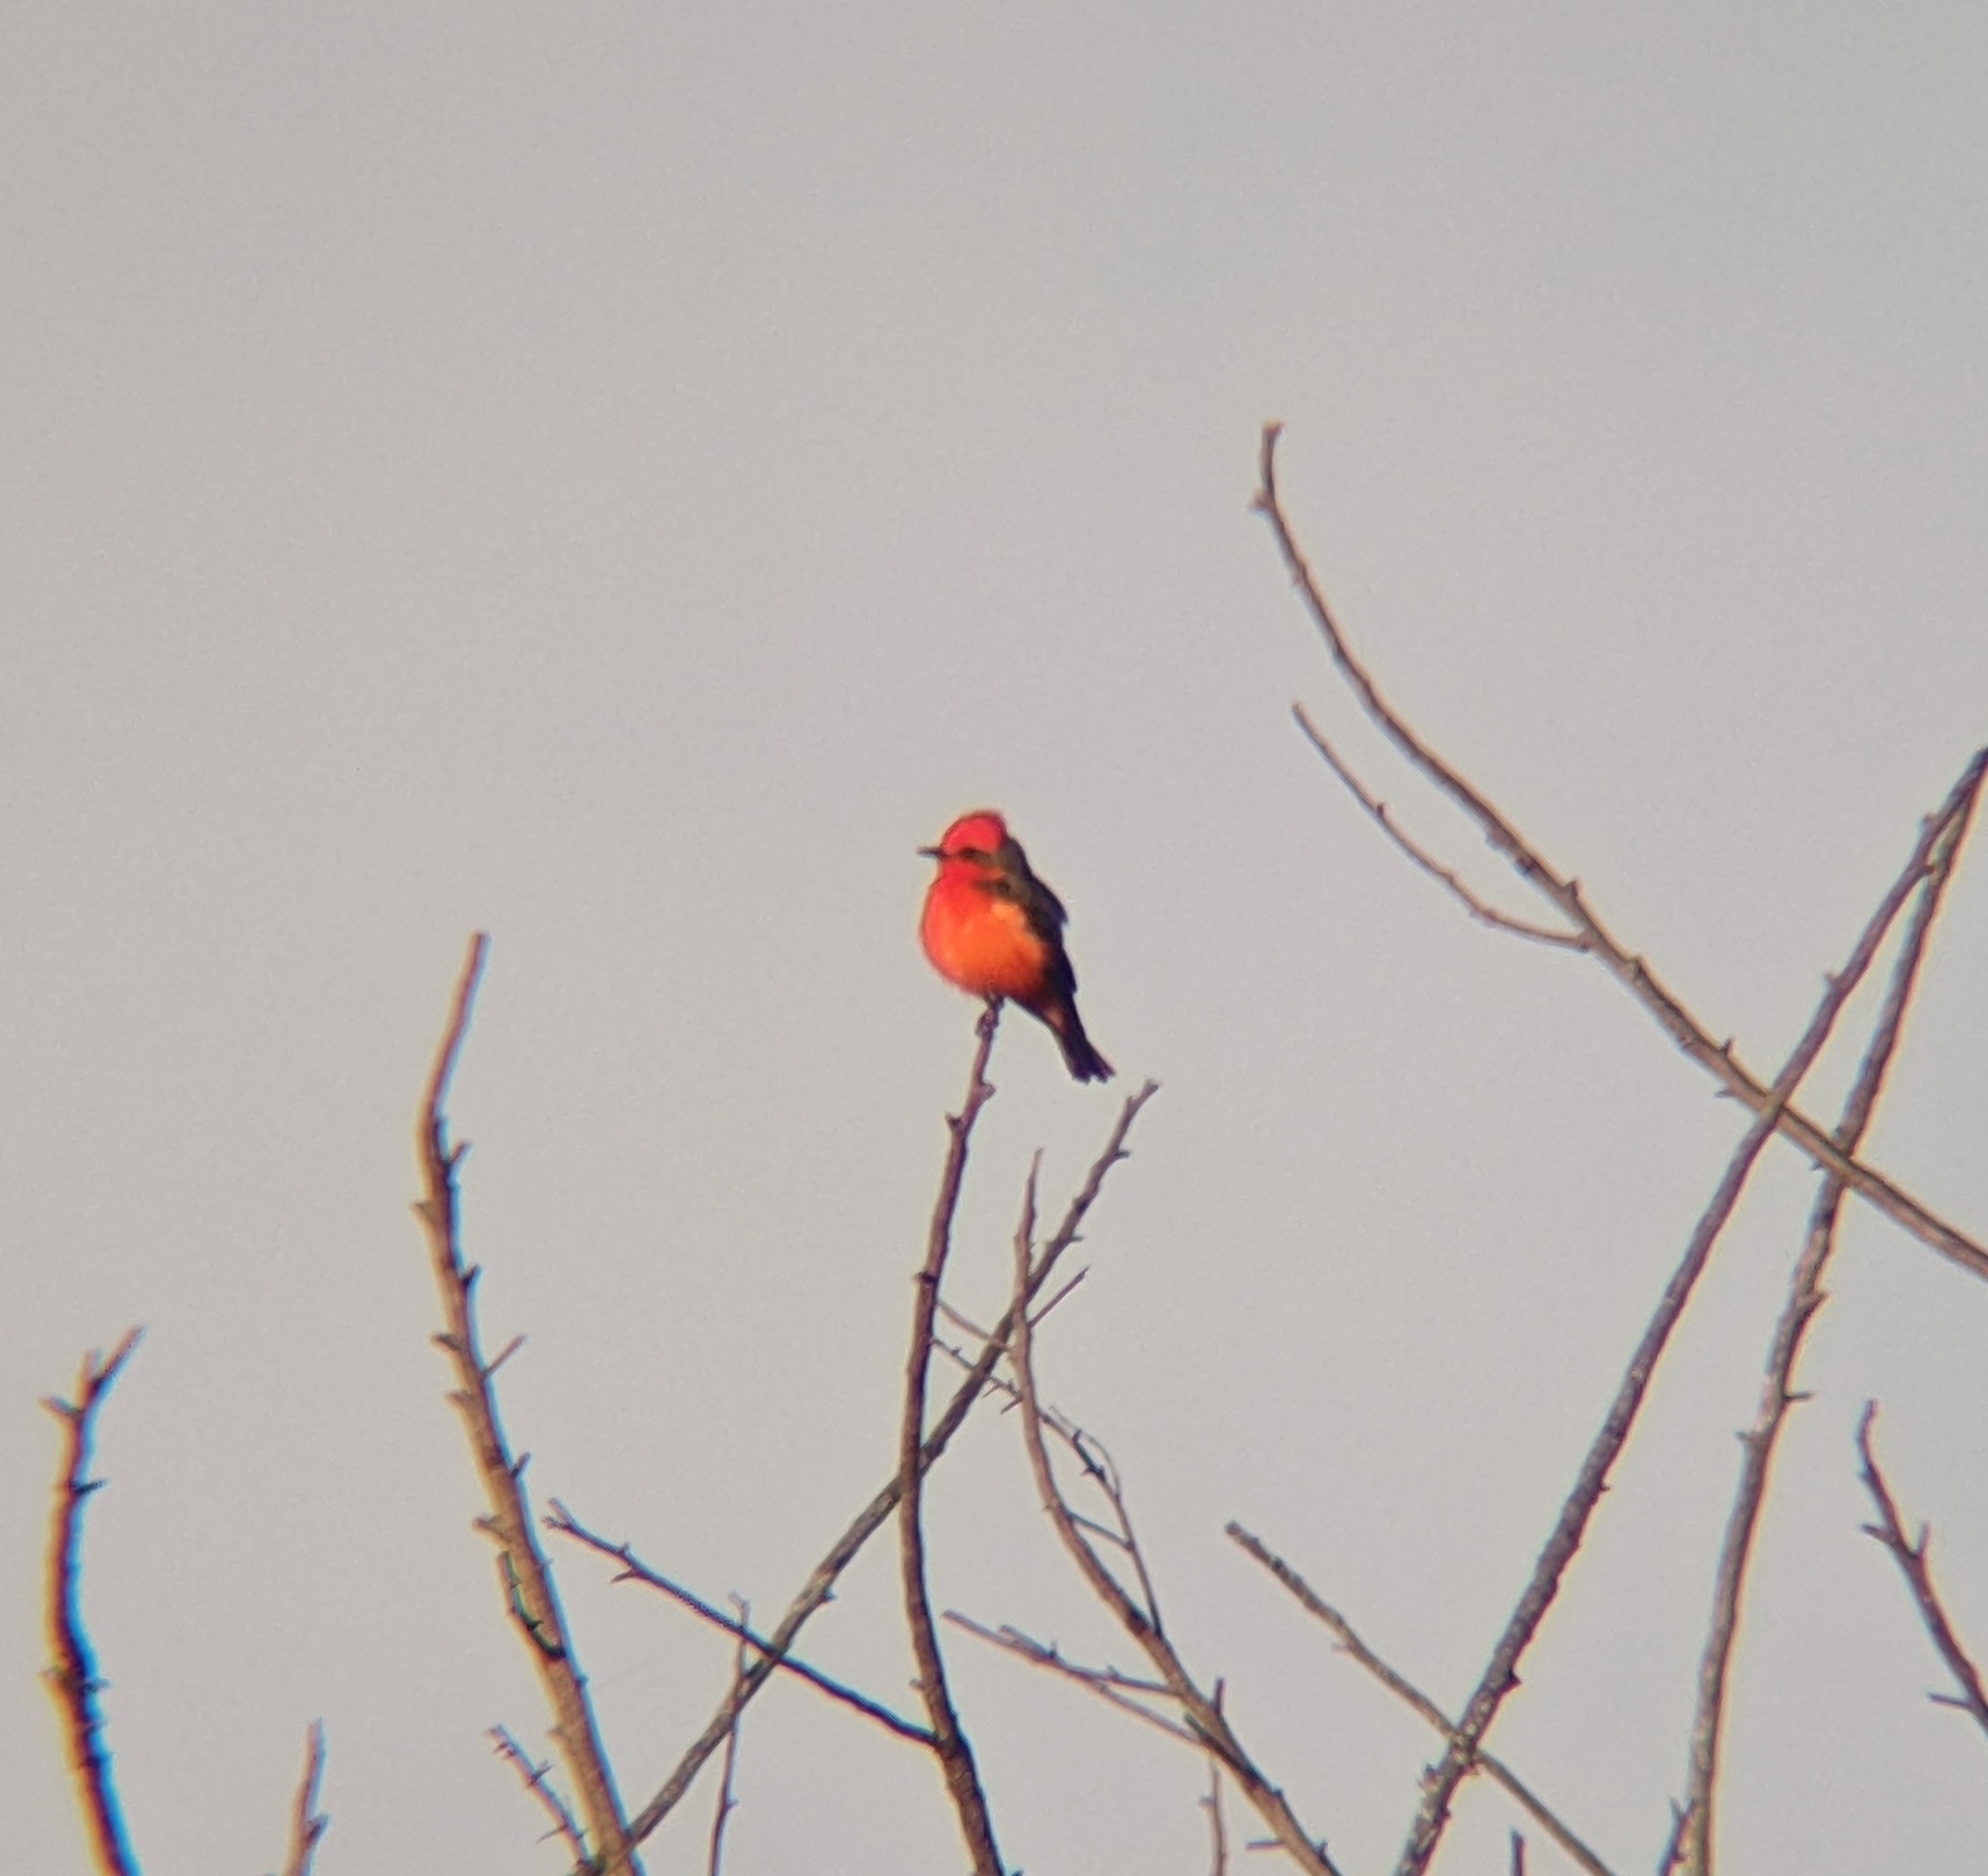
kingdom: Animalia
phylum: Chordata
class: Aves
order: Passeriformes
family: Tyrannidae
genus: Pyrocephalus
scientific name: Pyrocephalus rubinus
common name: Vermilion flycatcher
